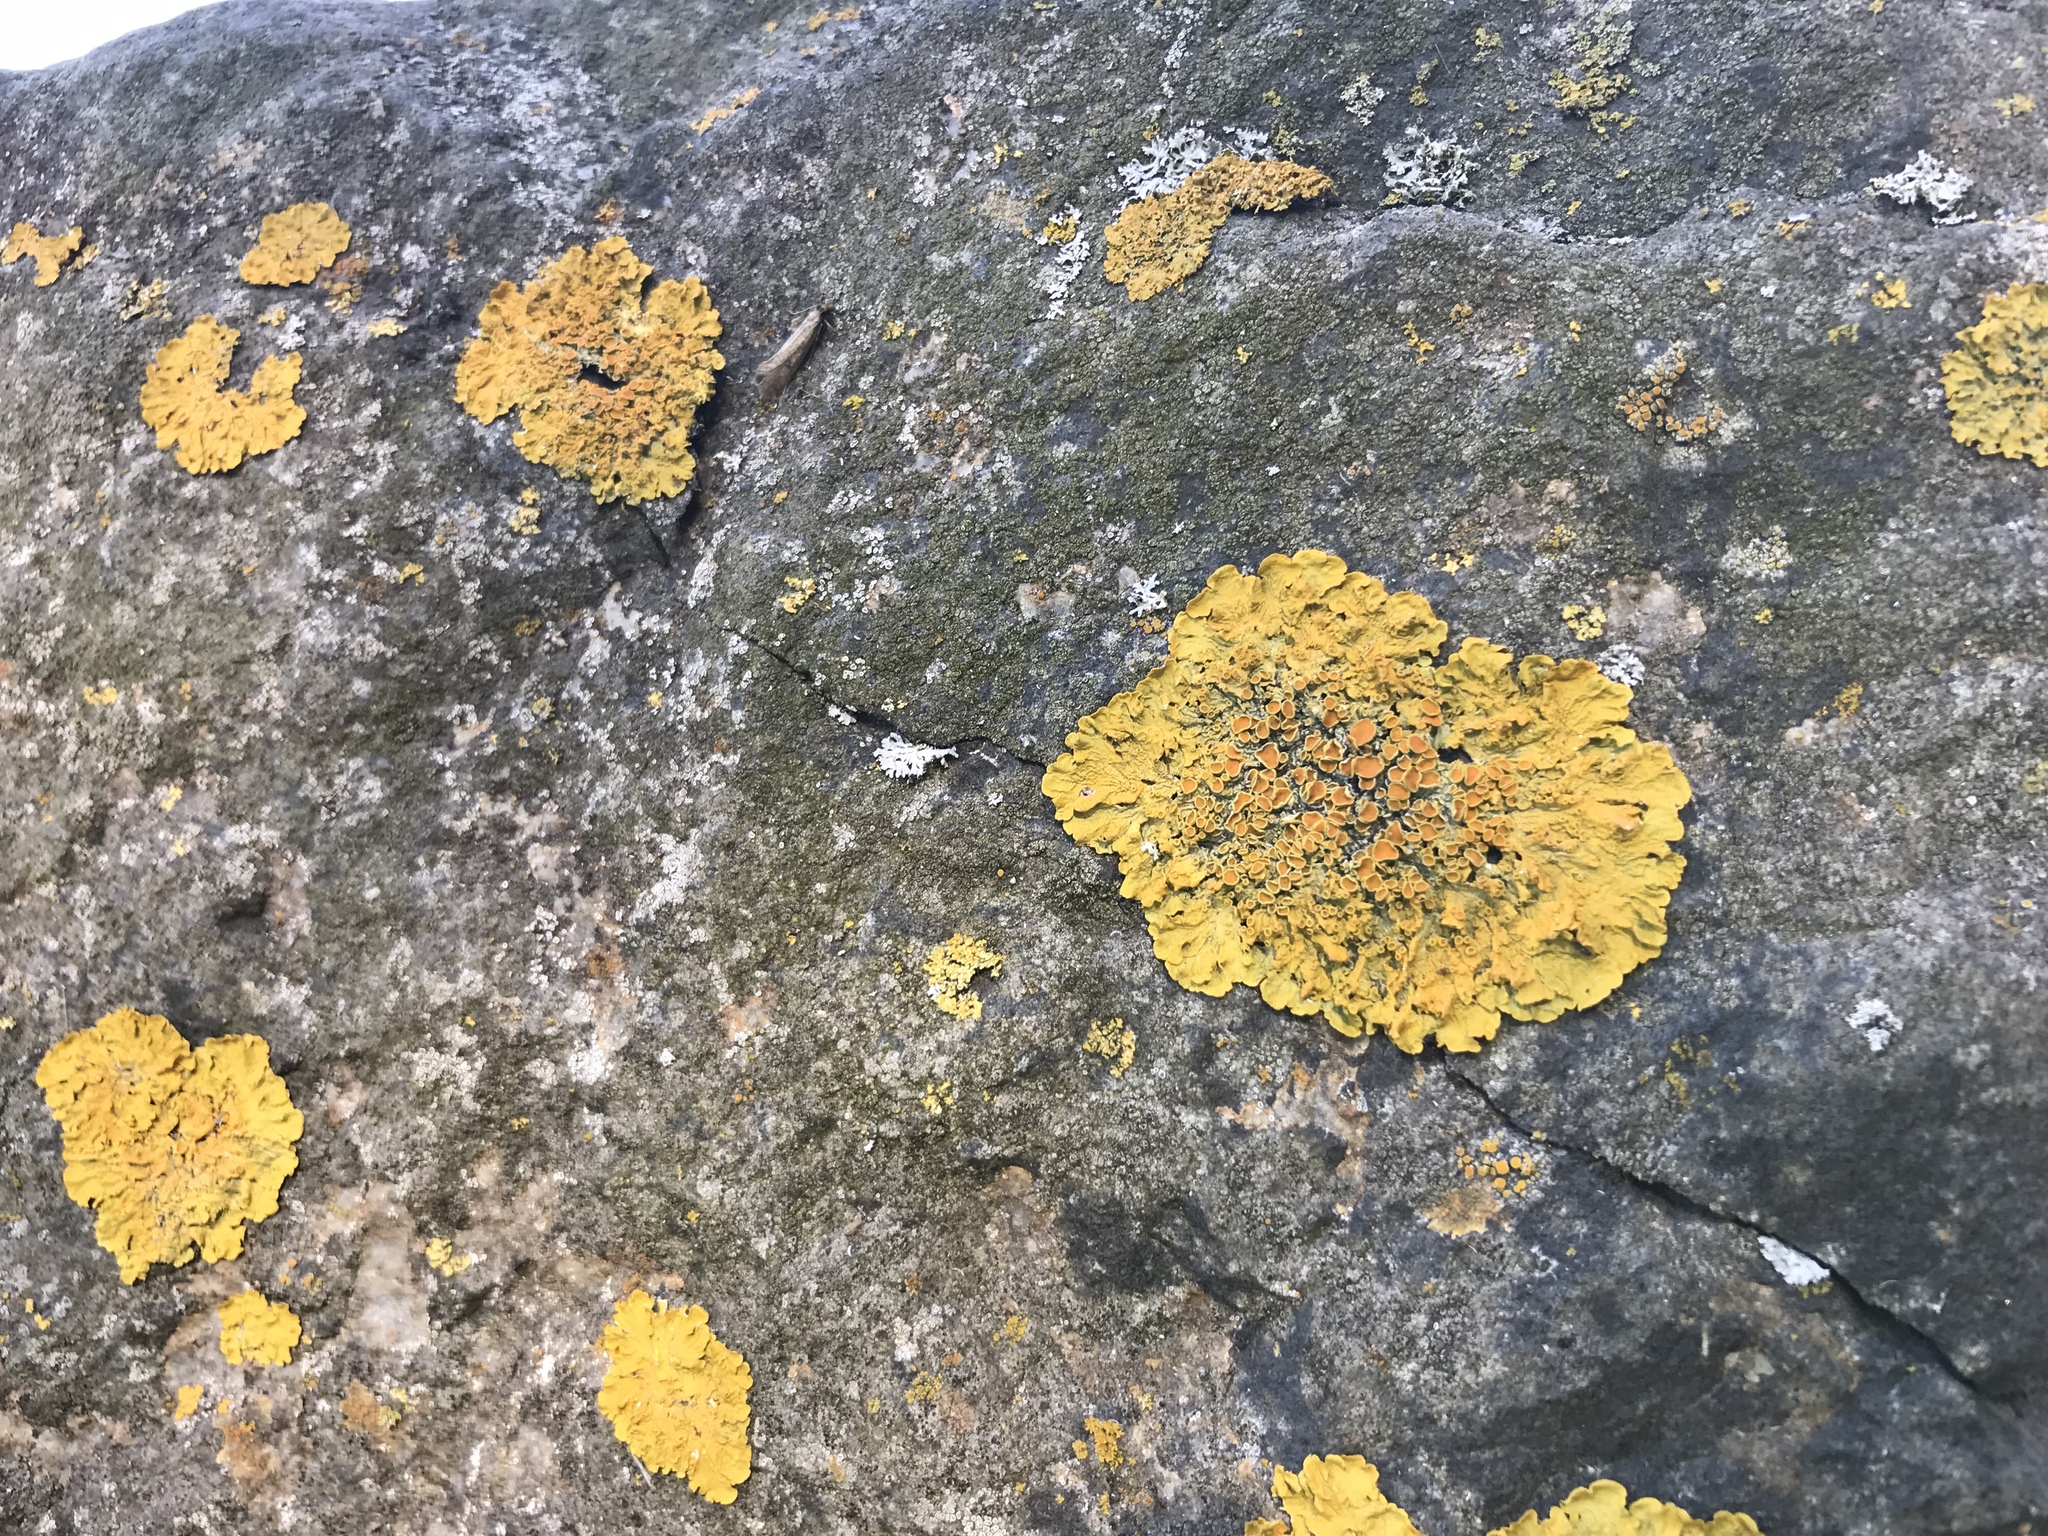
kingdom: Fungi
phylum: Ascomycota
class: Lecanoromycetes
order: Teloschistales
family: Teloschistaceae
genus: Xanthoria
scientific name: Xanthoria parietina
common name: Common orange lichen
